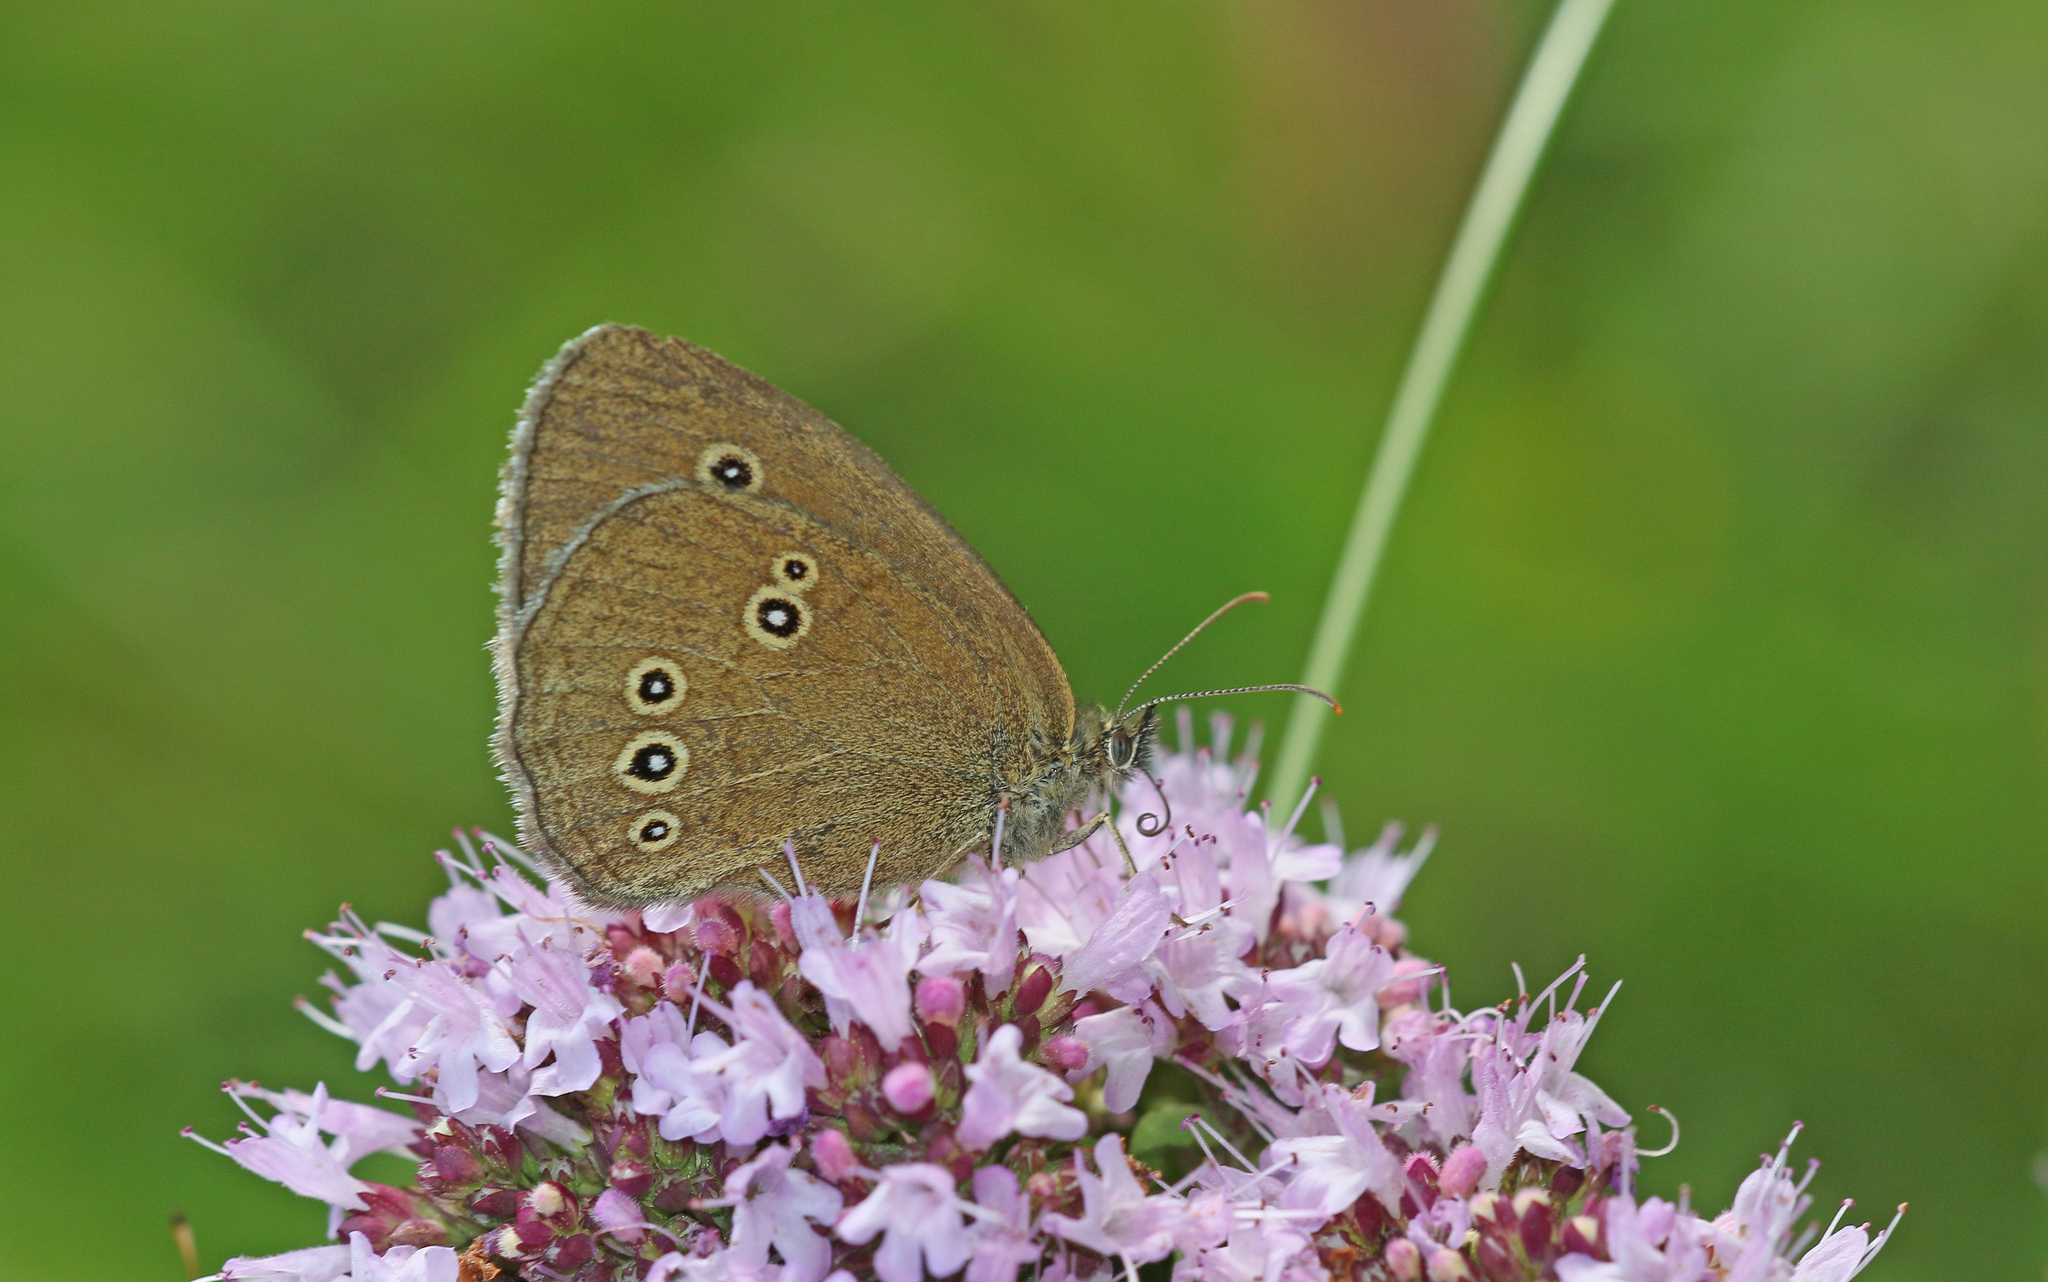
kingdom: Animalia
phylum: Arthropoda
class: Insecta
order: Lepidoptera
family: Nymphalidae
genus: Aphantopus
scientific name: Aphantopus hyperantus
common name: Ringlet
